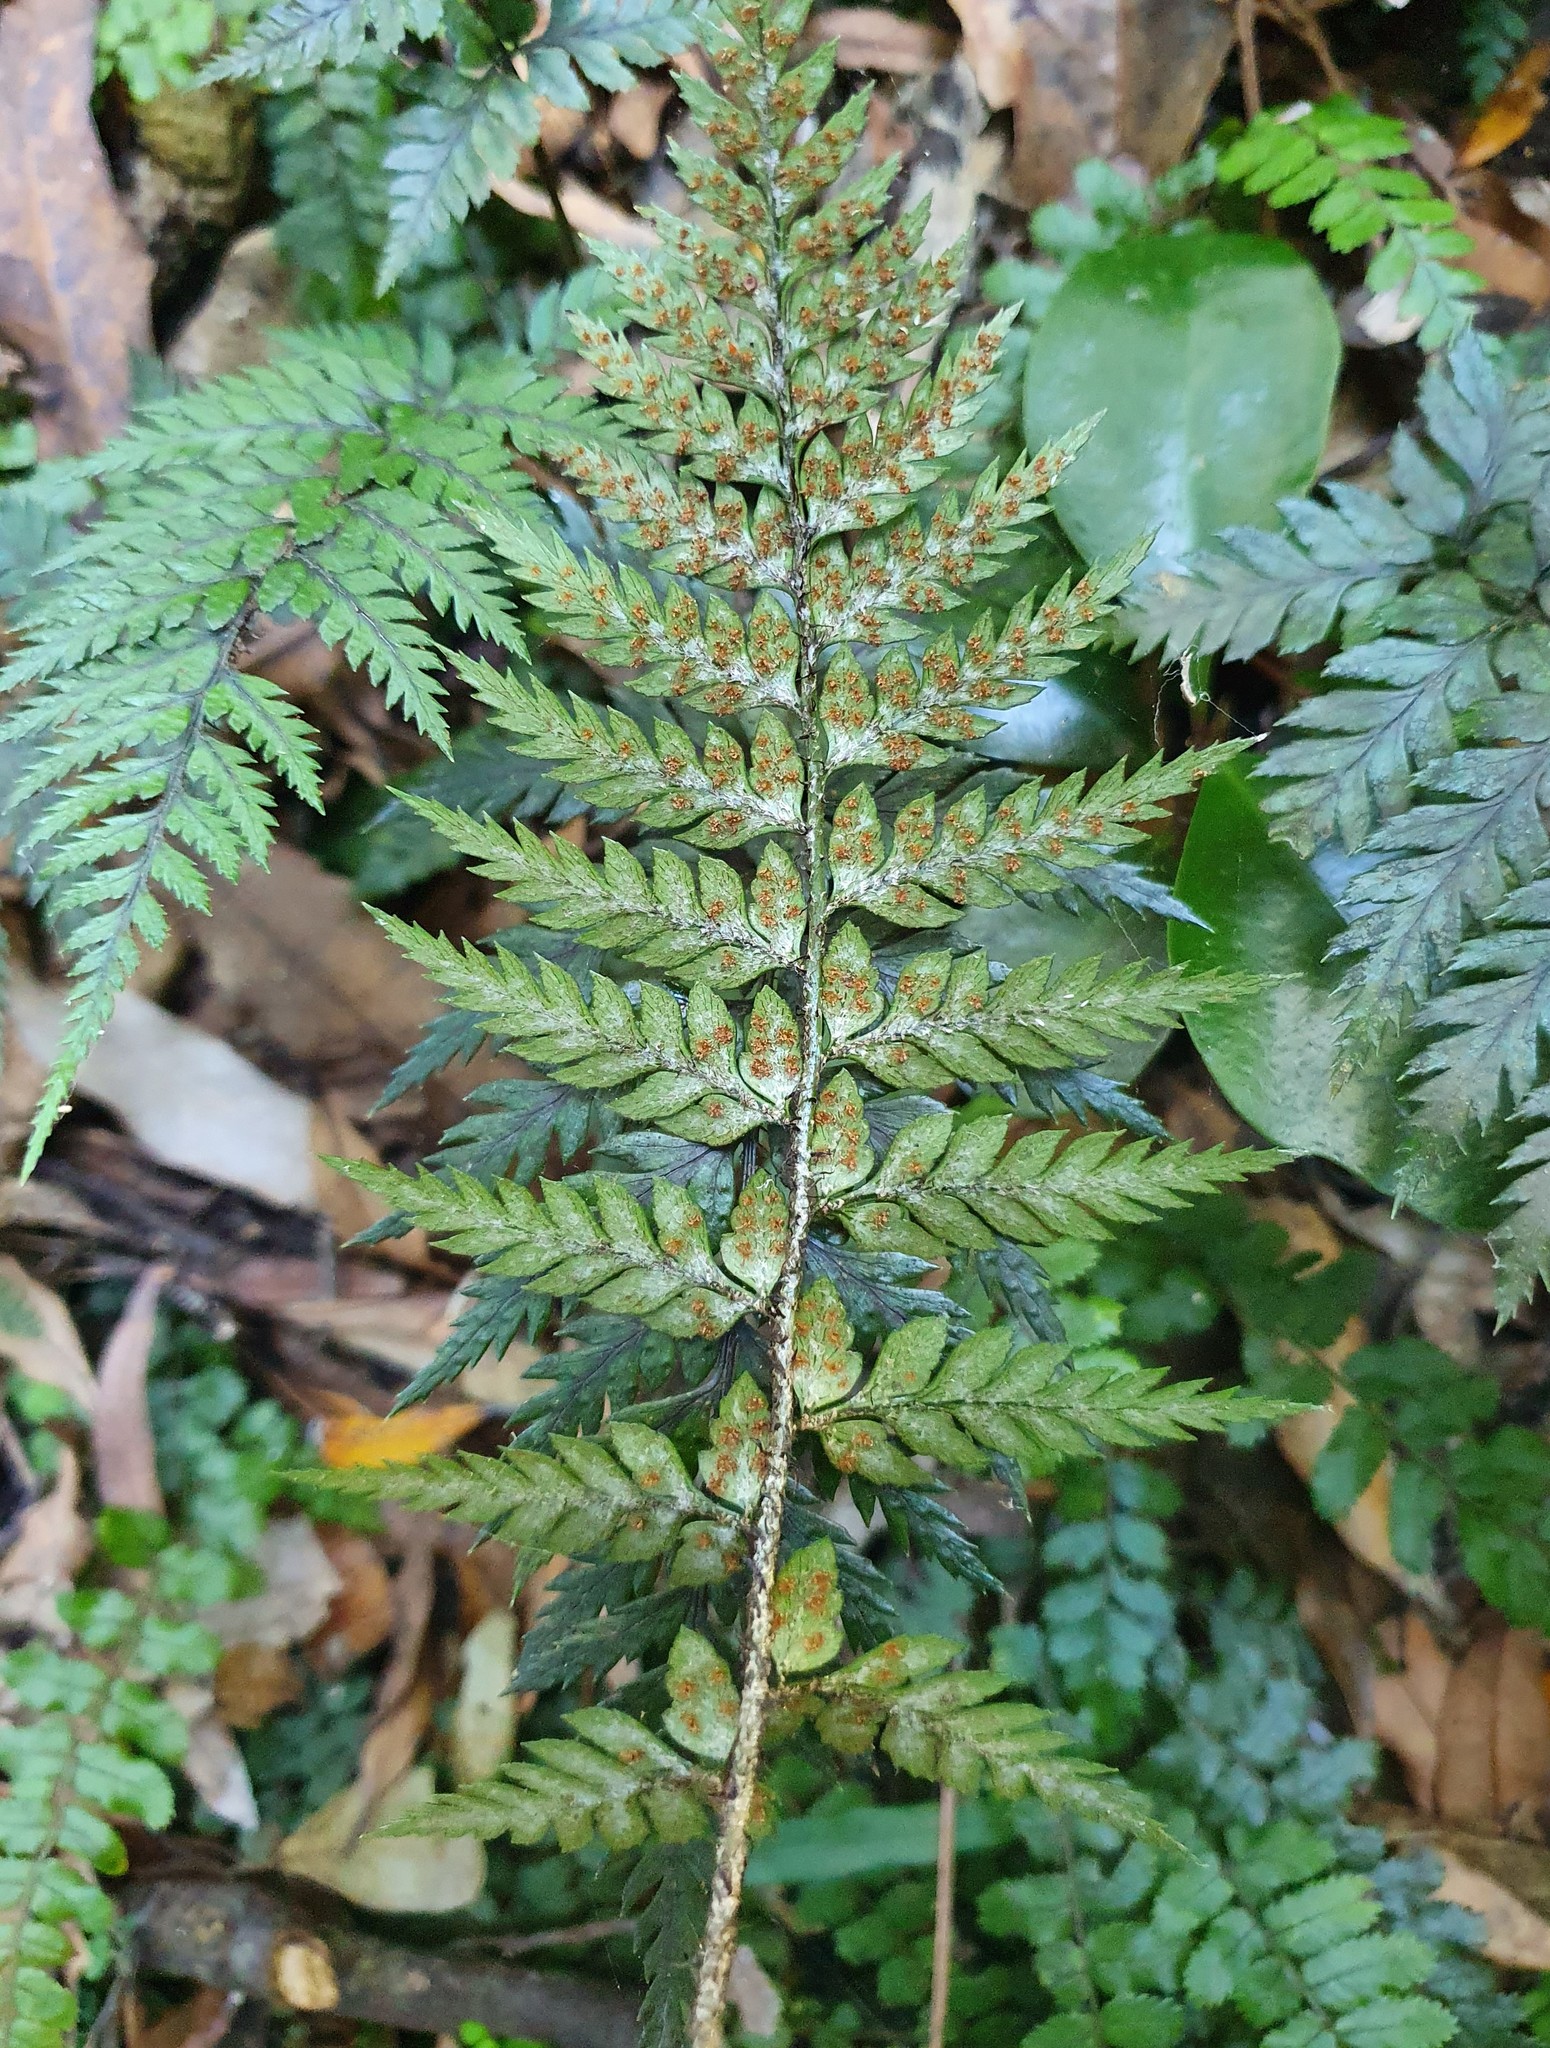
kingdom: Plantae
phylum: Tracheophyta
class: Polypodiopsida
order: Polypodiales
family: Dryopteridaceae
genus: Polystichum
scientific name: Polystichum neozelandicum
